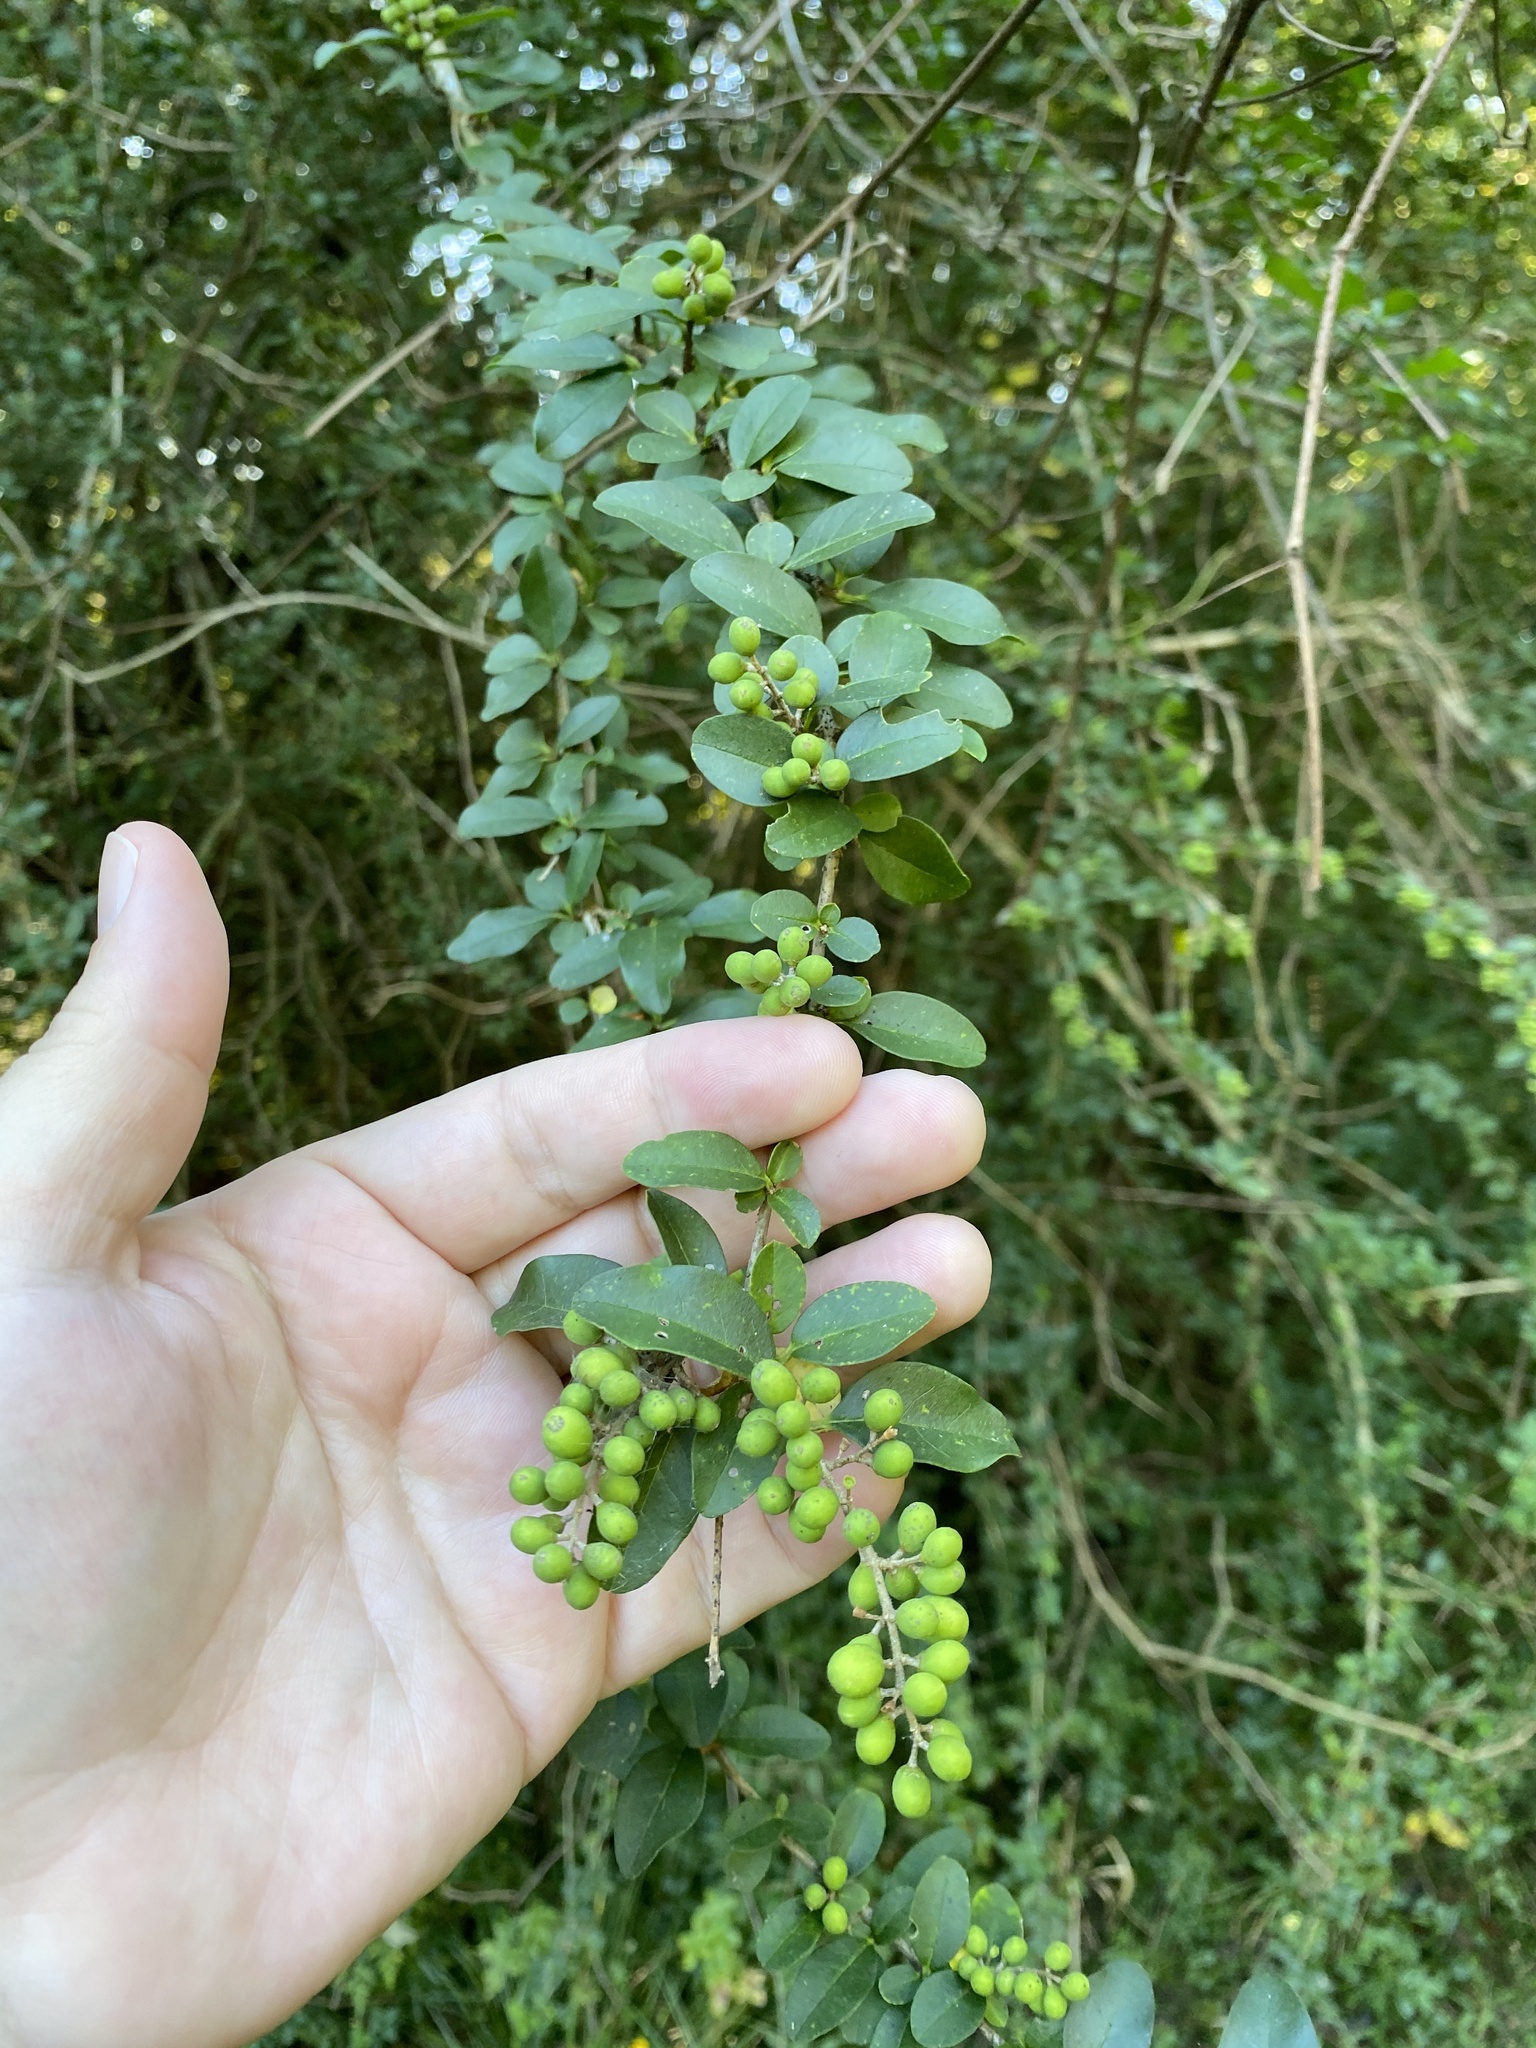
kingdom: Plantae
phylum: Tracheophyta
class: Magnoliopsida
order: Lamiales
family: Oleaceae
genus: Ligustrum
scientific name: Ligustrum sinense
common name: Chinese privet
